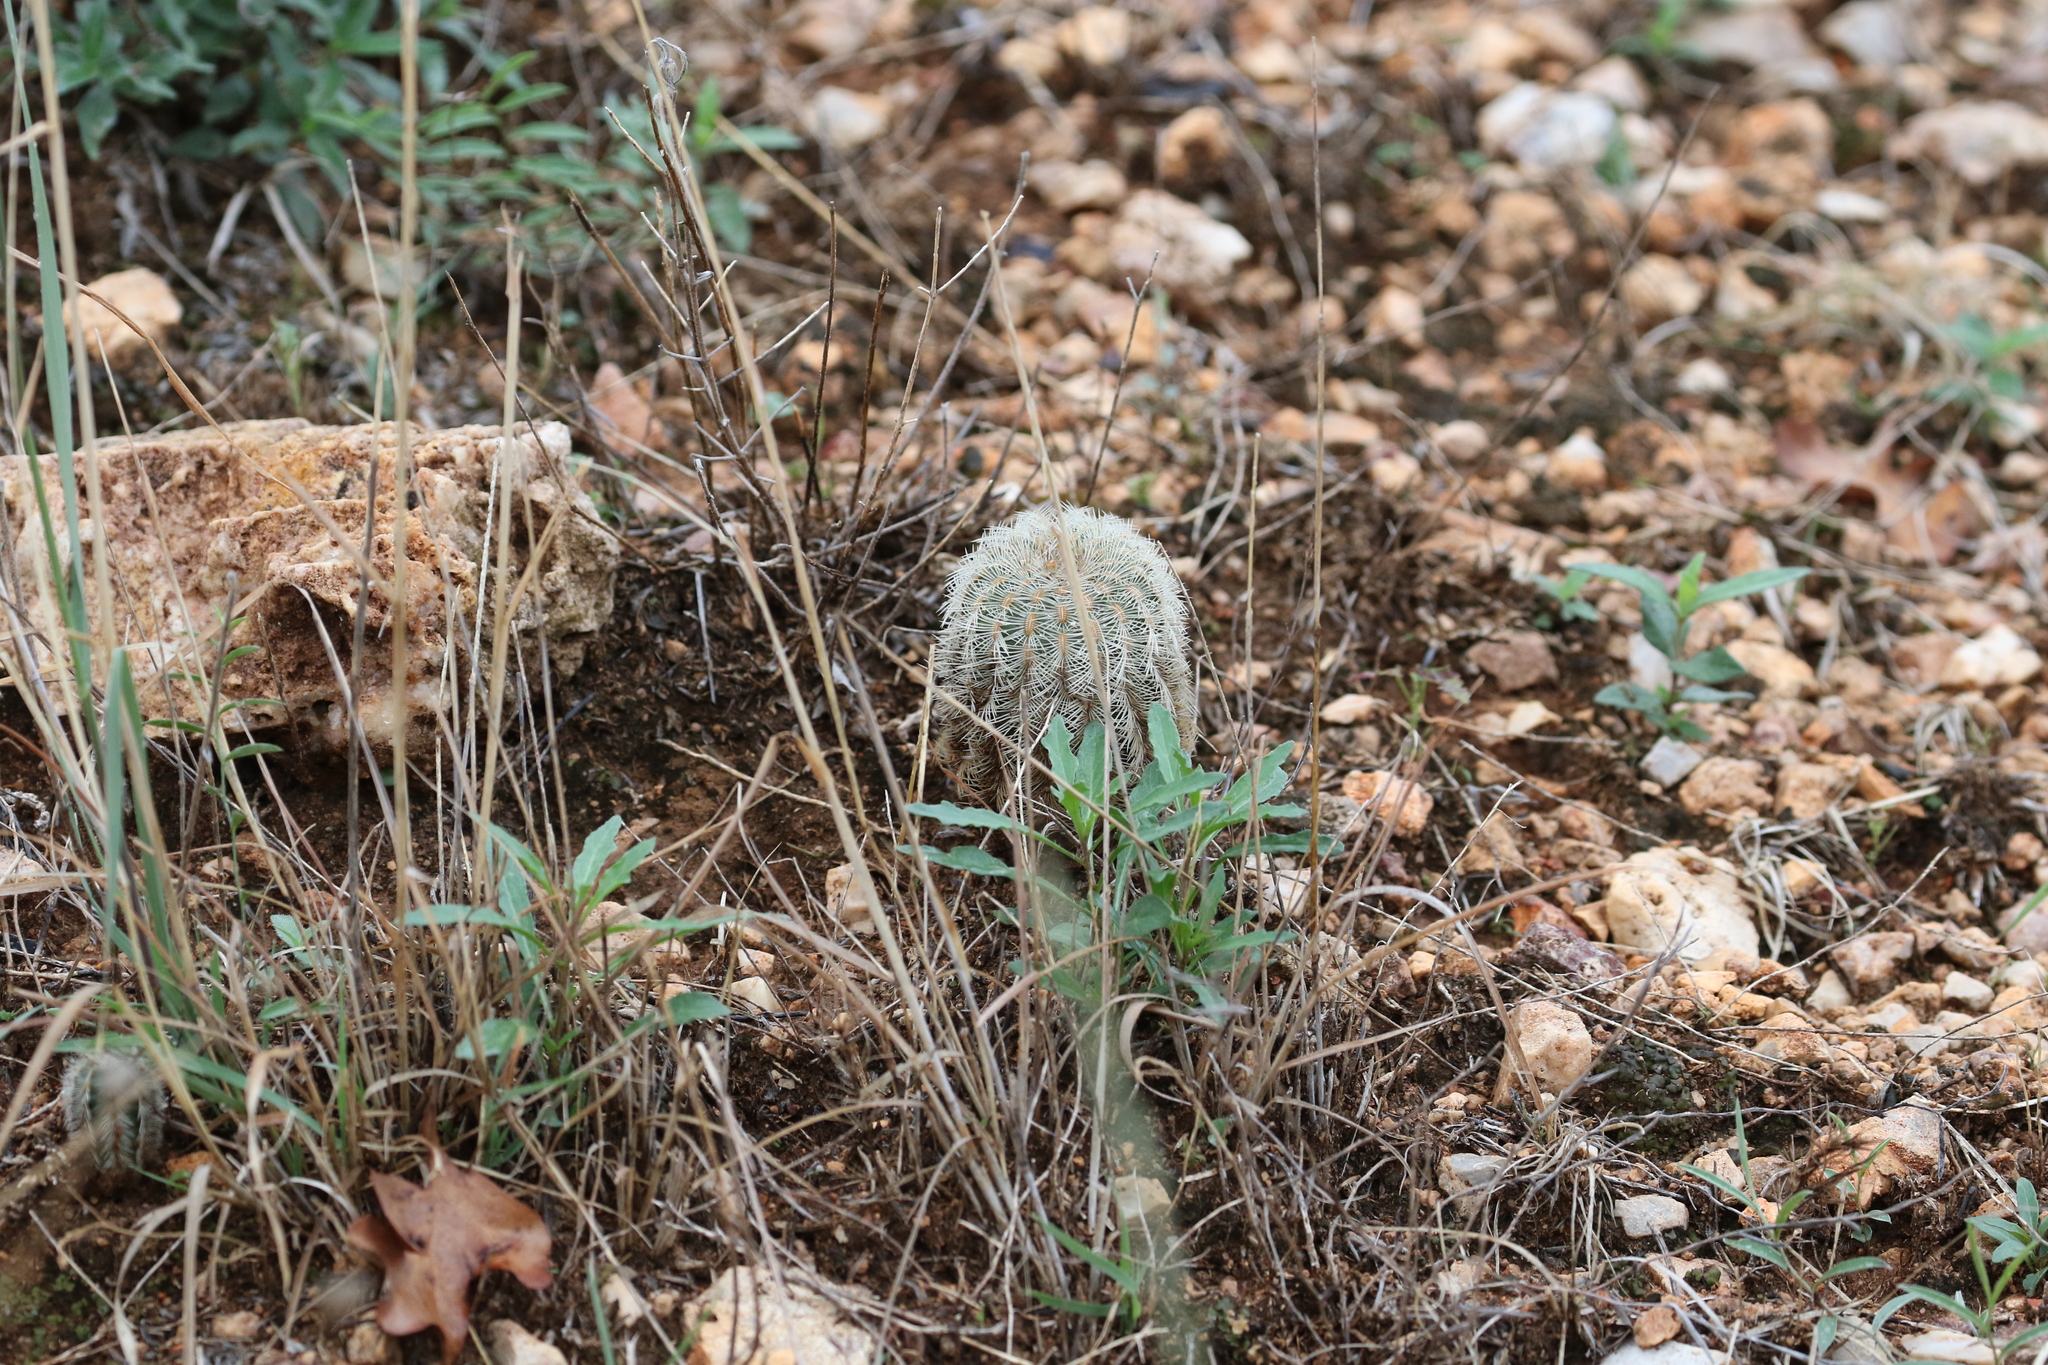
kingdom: Plantae
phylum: Tracheophyta
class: Magnoliopsida
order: Caryophyllales
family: Cactaceae
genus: Echinocereus
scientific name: Echinocereus reichenbachii
